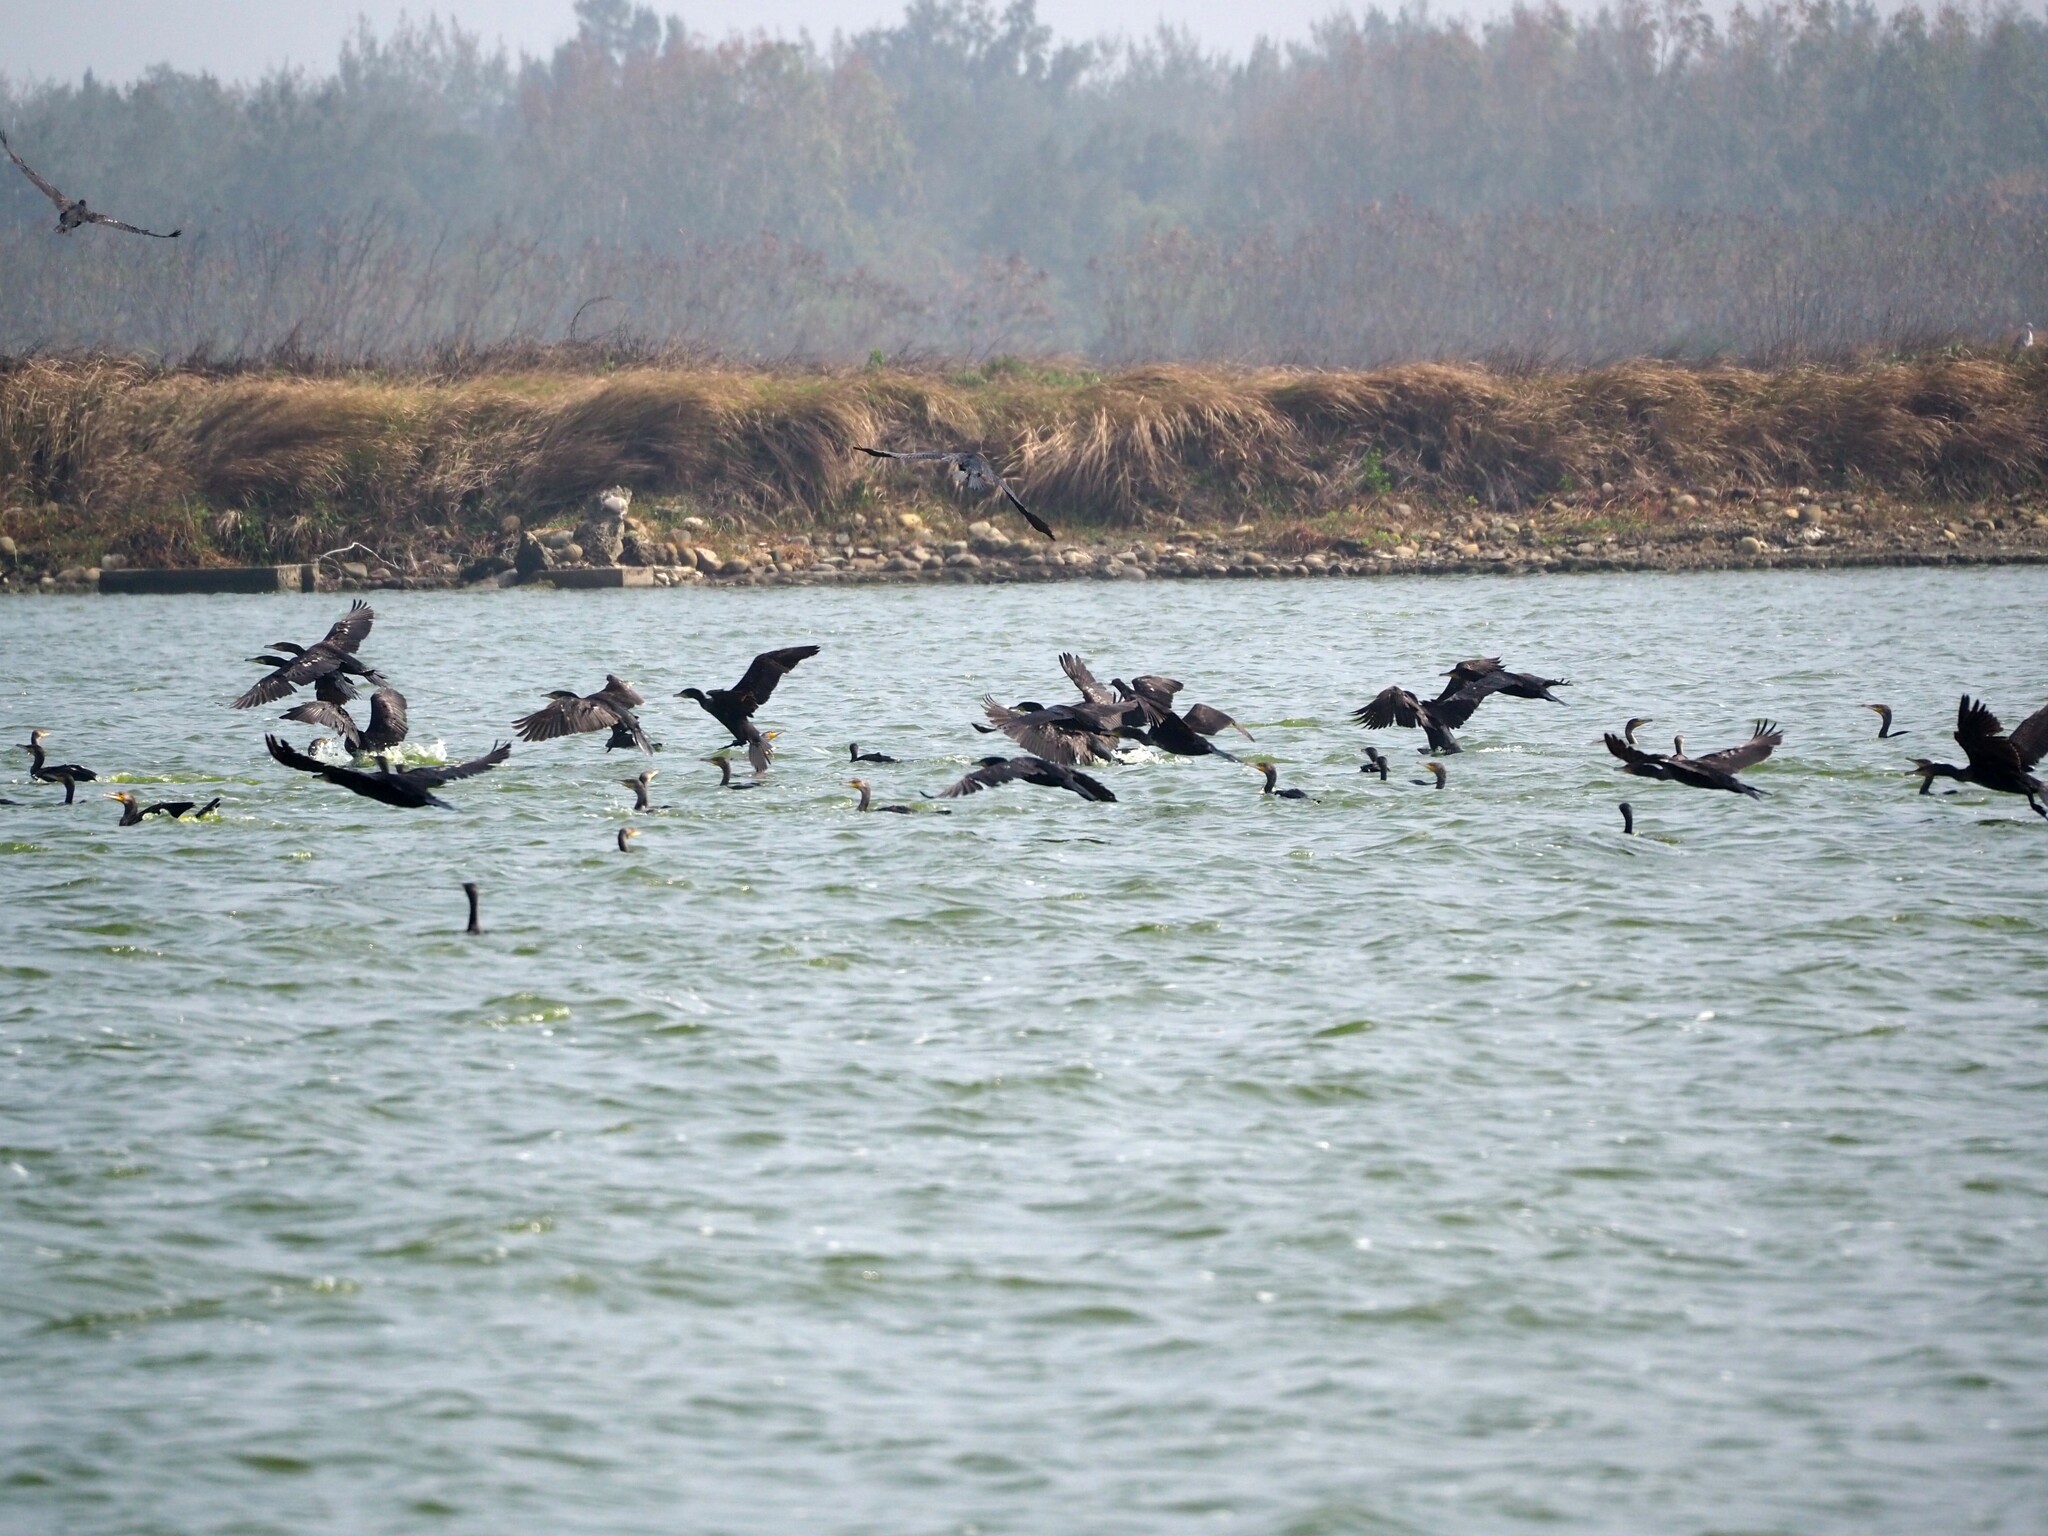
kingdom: Animalia
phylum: Chordata
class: Aves
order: Suliformes
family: Phalacrocoracidae
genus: Phalacrocorax
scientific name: Phalacrocorax carbo
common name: Great cormorant
